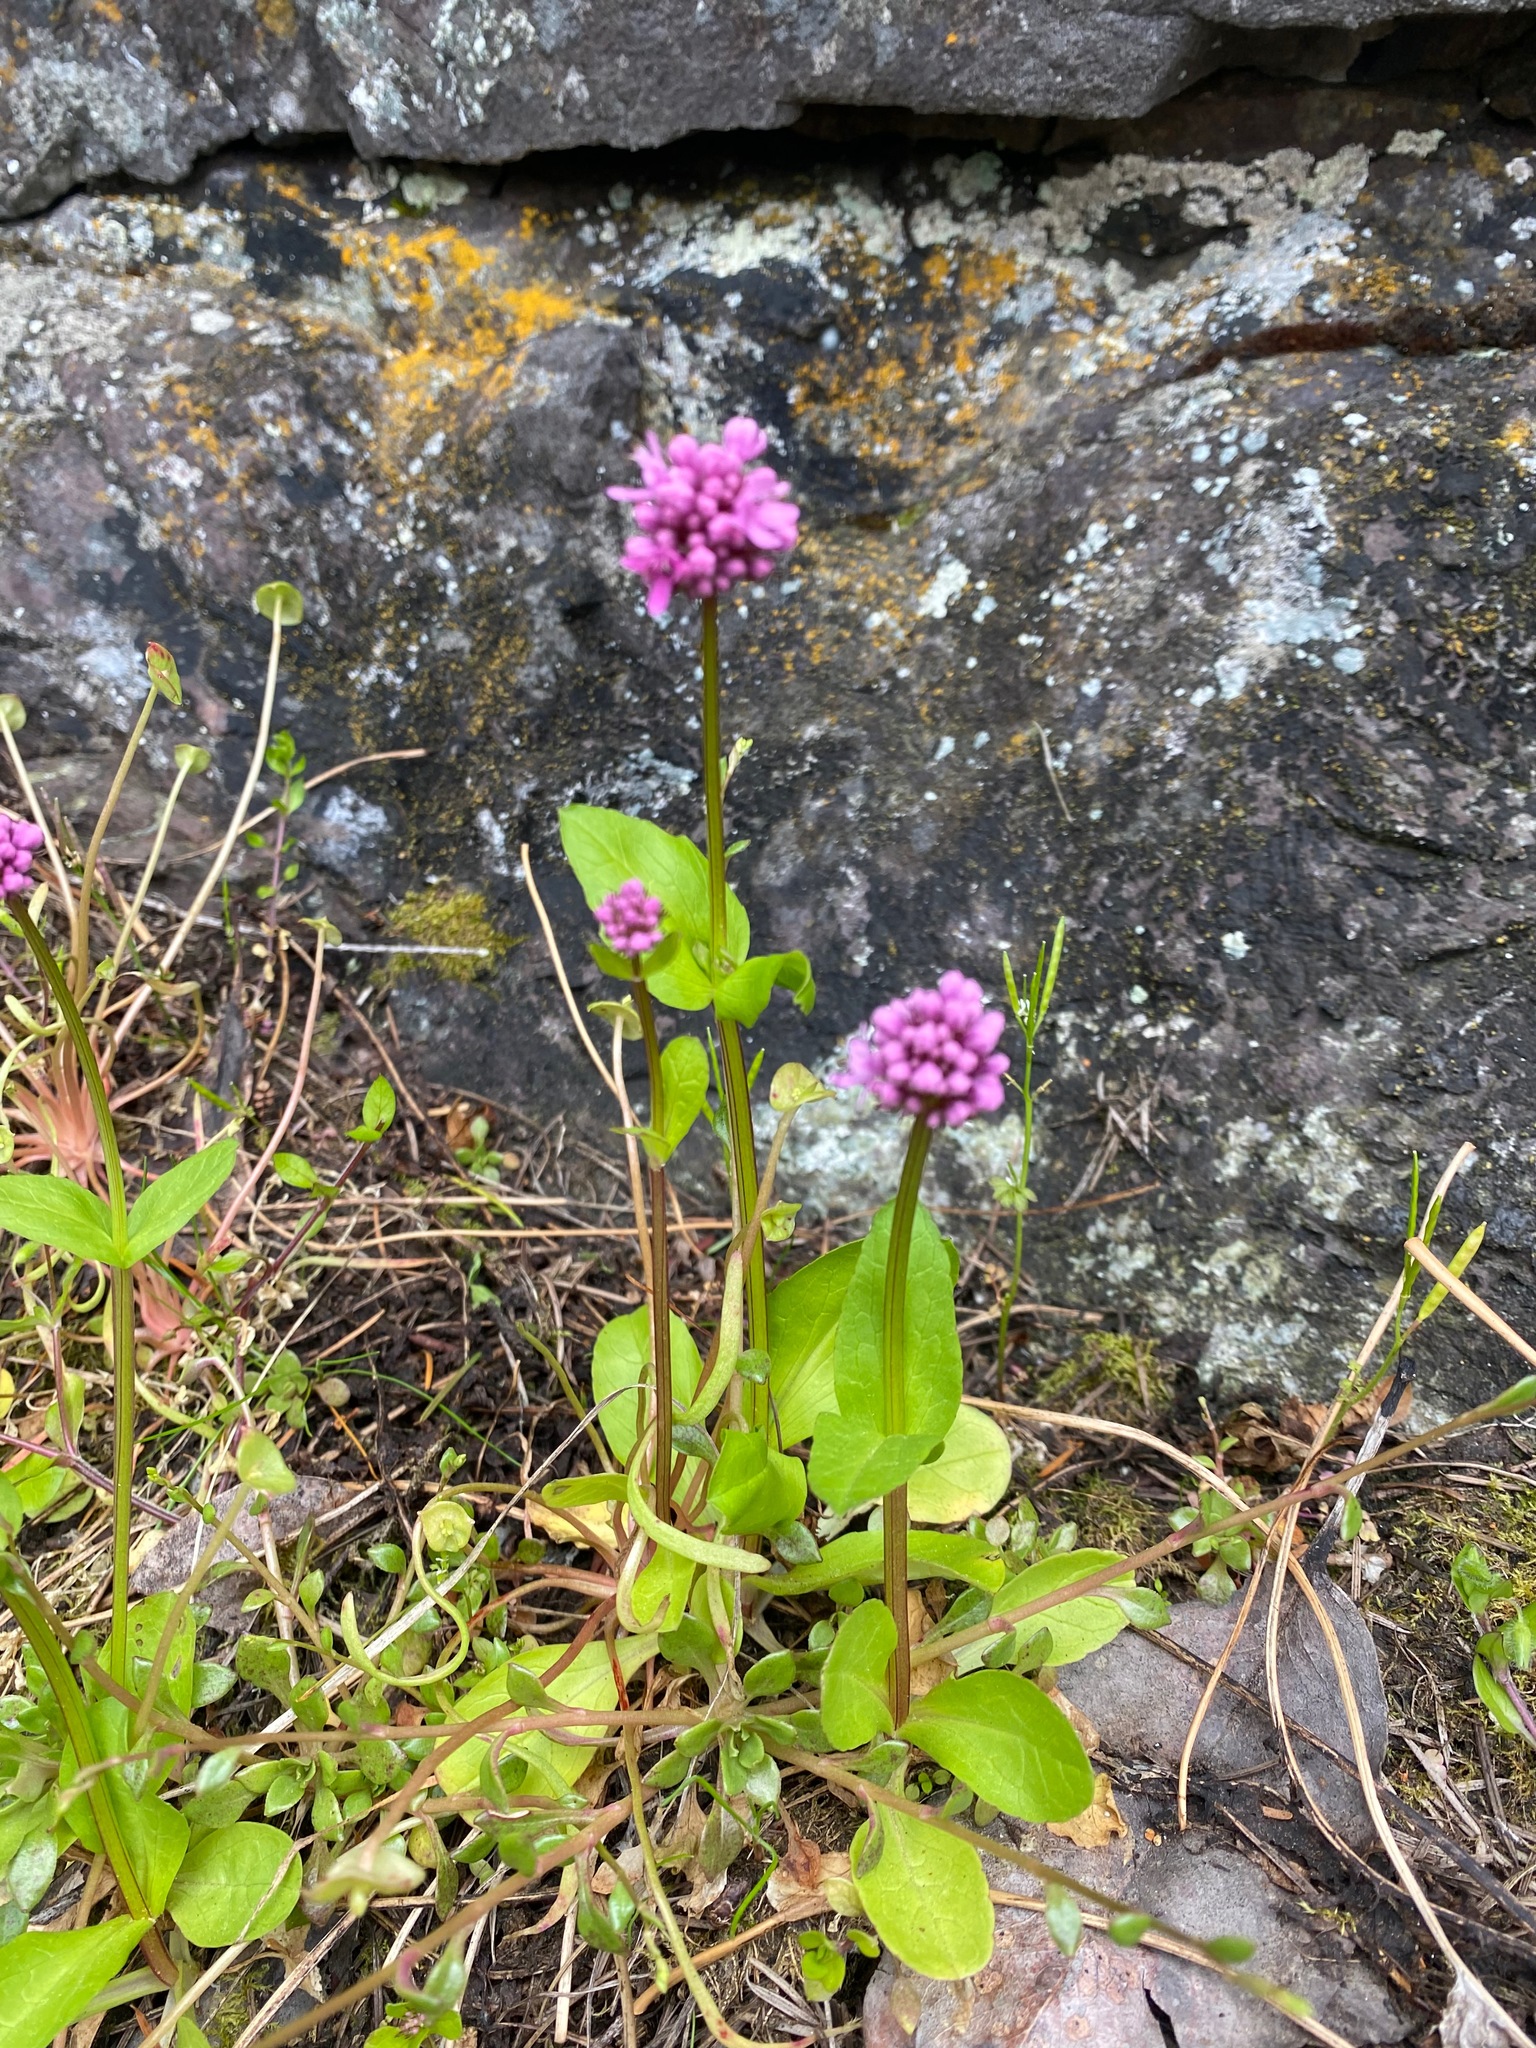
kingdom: Plantae
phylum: Tracheophyta
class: Magnoliopsida
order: Dipsacales
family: Caprifoliaceae
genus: Plectritis
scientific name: Plectritis congesta
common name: Pink plectritis
